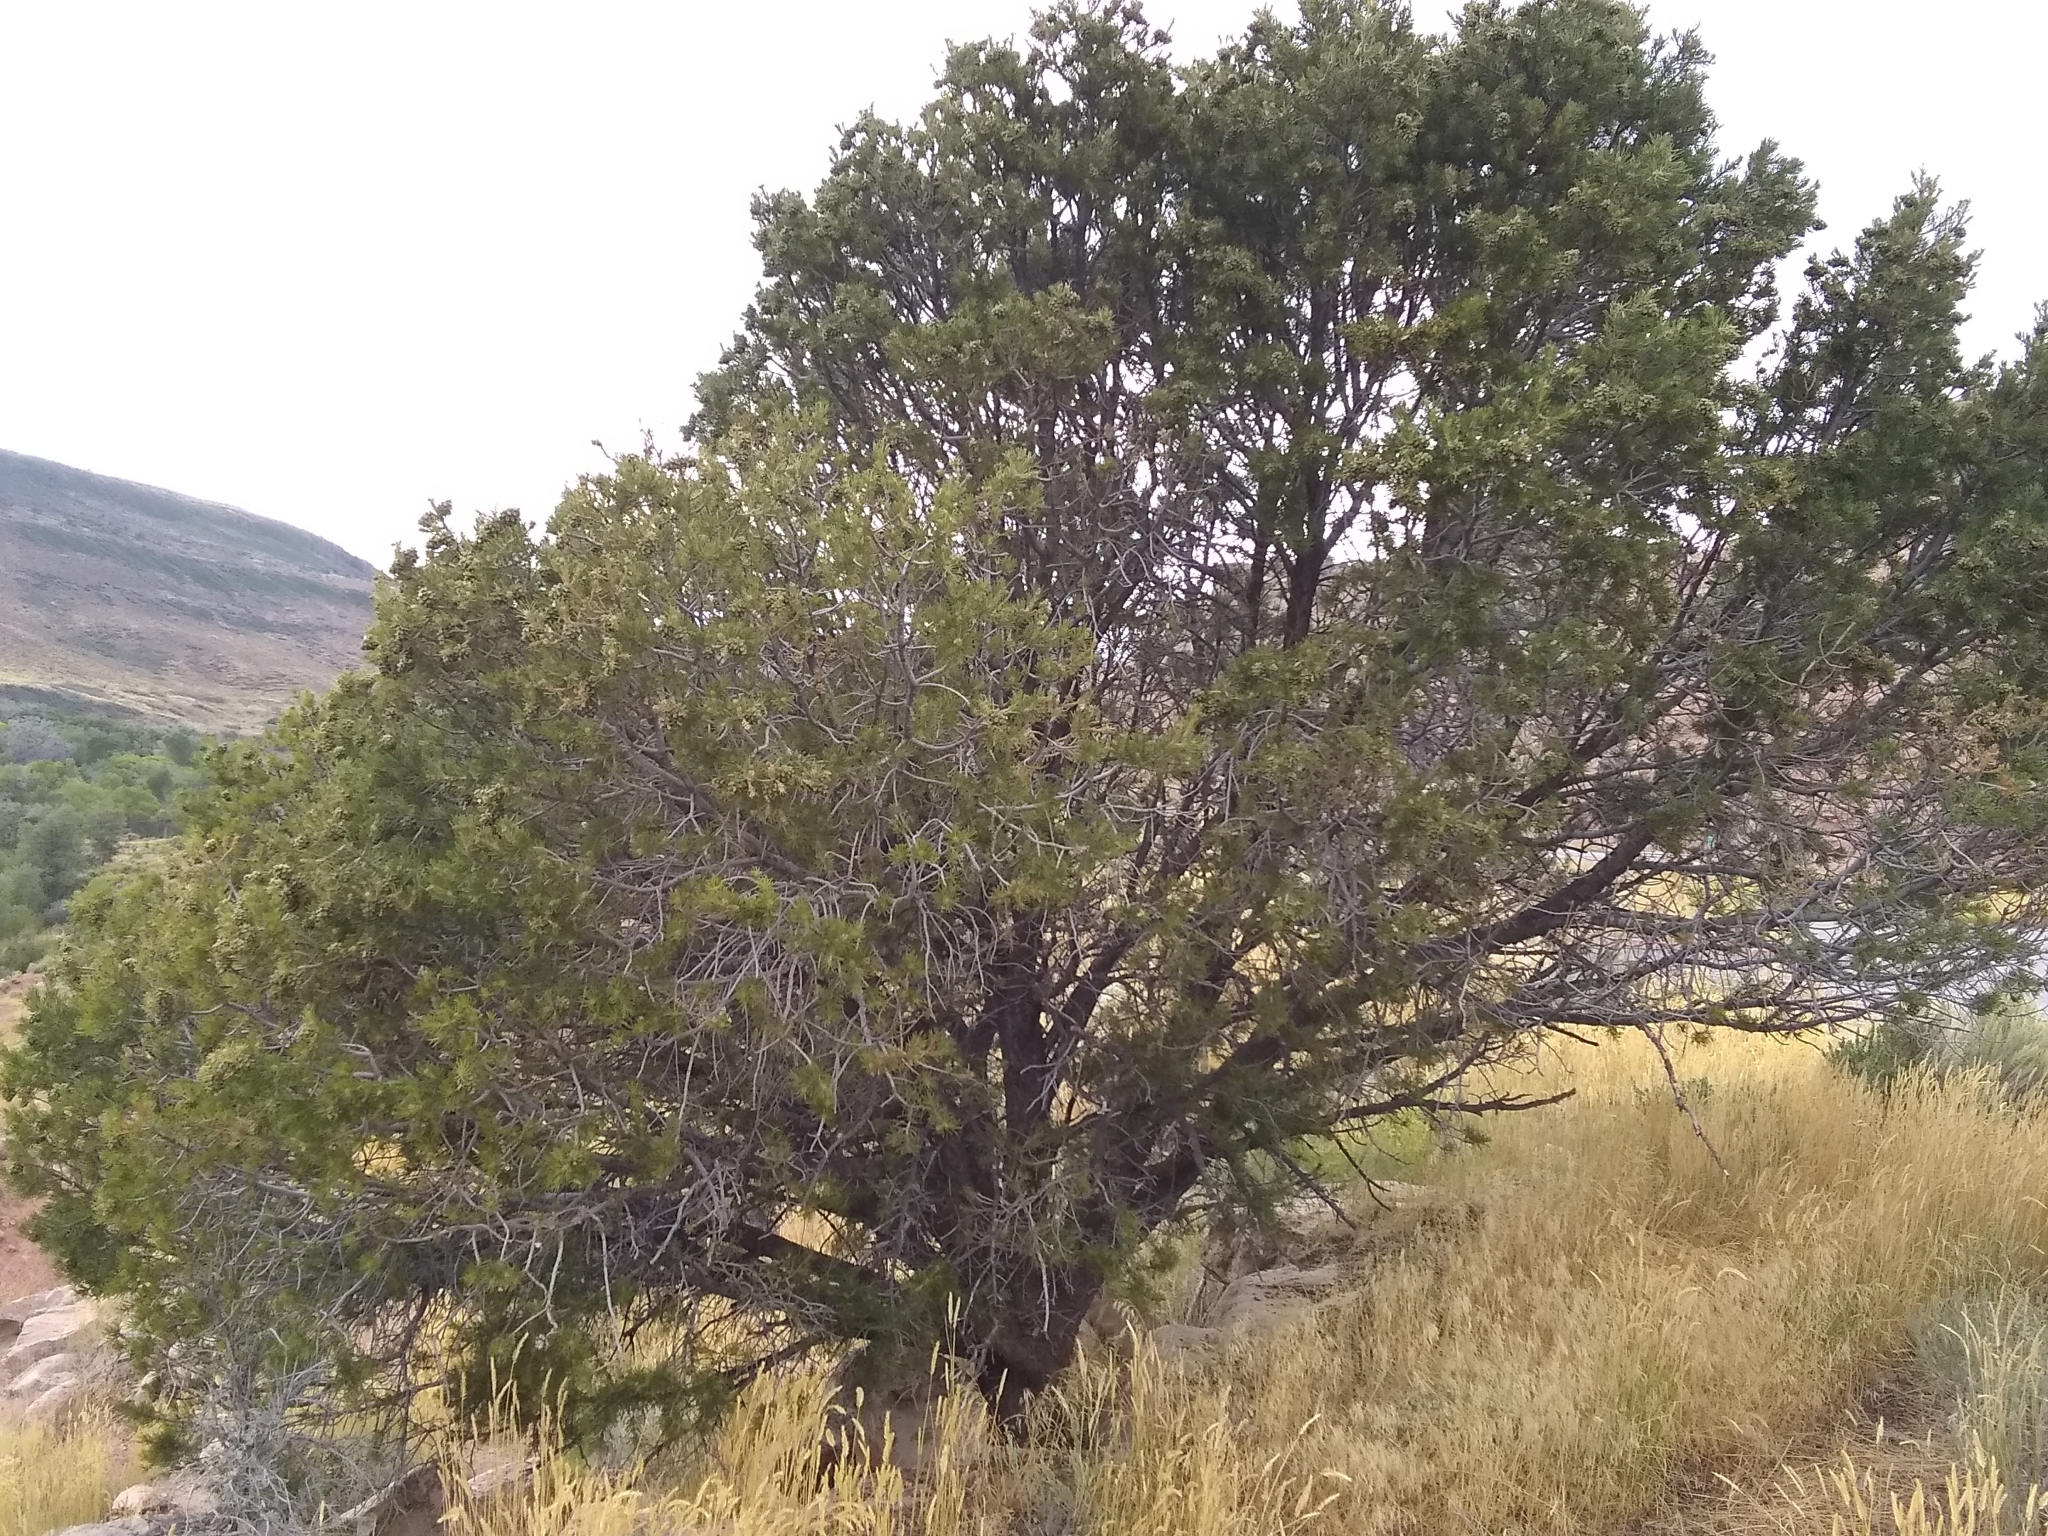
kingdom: Plantae
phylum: Tracheophyta
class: Pinopsida
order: Pinales
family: Pinaceae
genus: Pinus
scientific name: Pinus edulis
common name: Colorado pinyon
